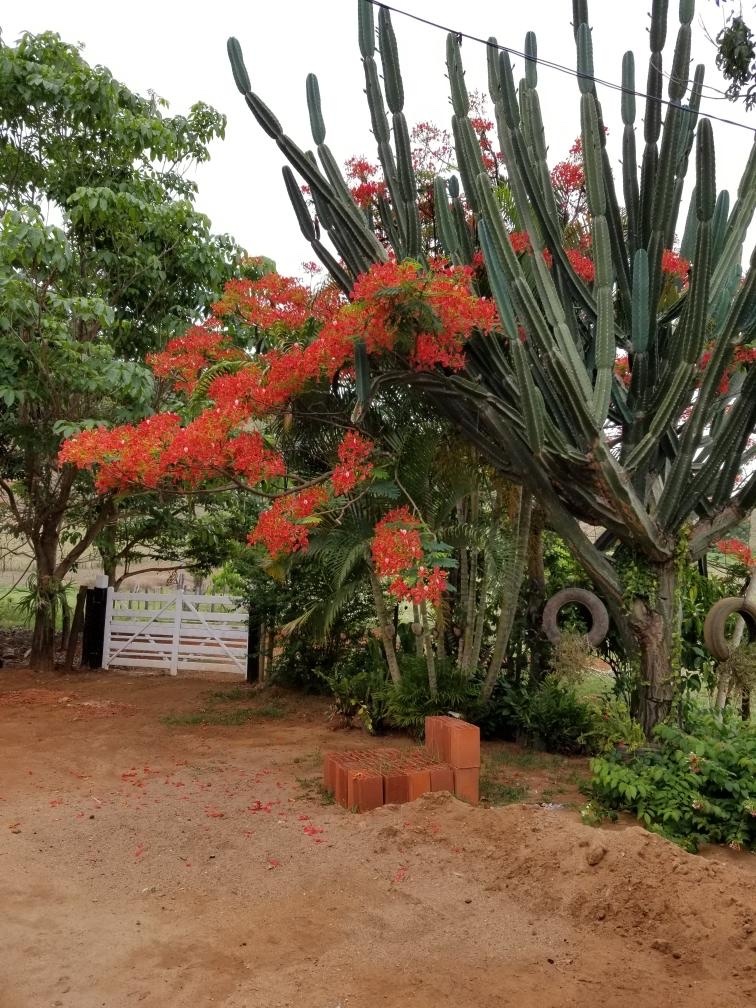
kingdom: Plantae
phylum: Tracheophyta
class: Magnoliopsida
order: Fabales
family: Fabaceae
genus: Delonix
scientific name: Delonix regia
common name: Royal poinciana
